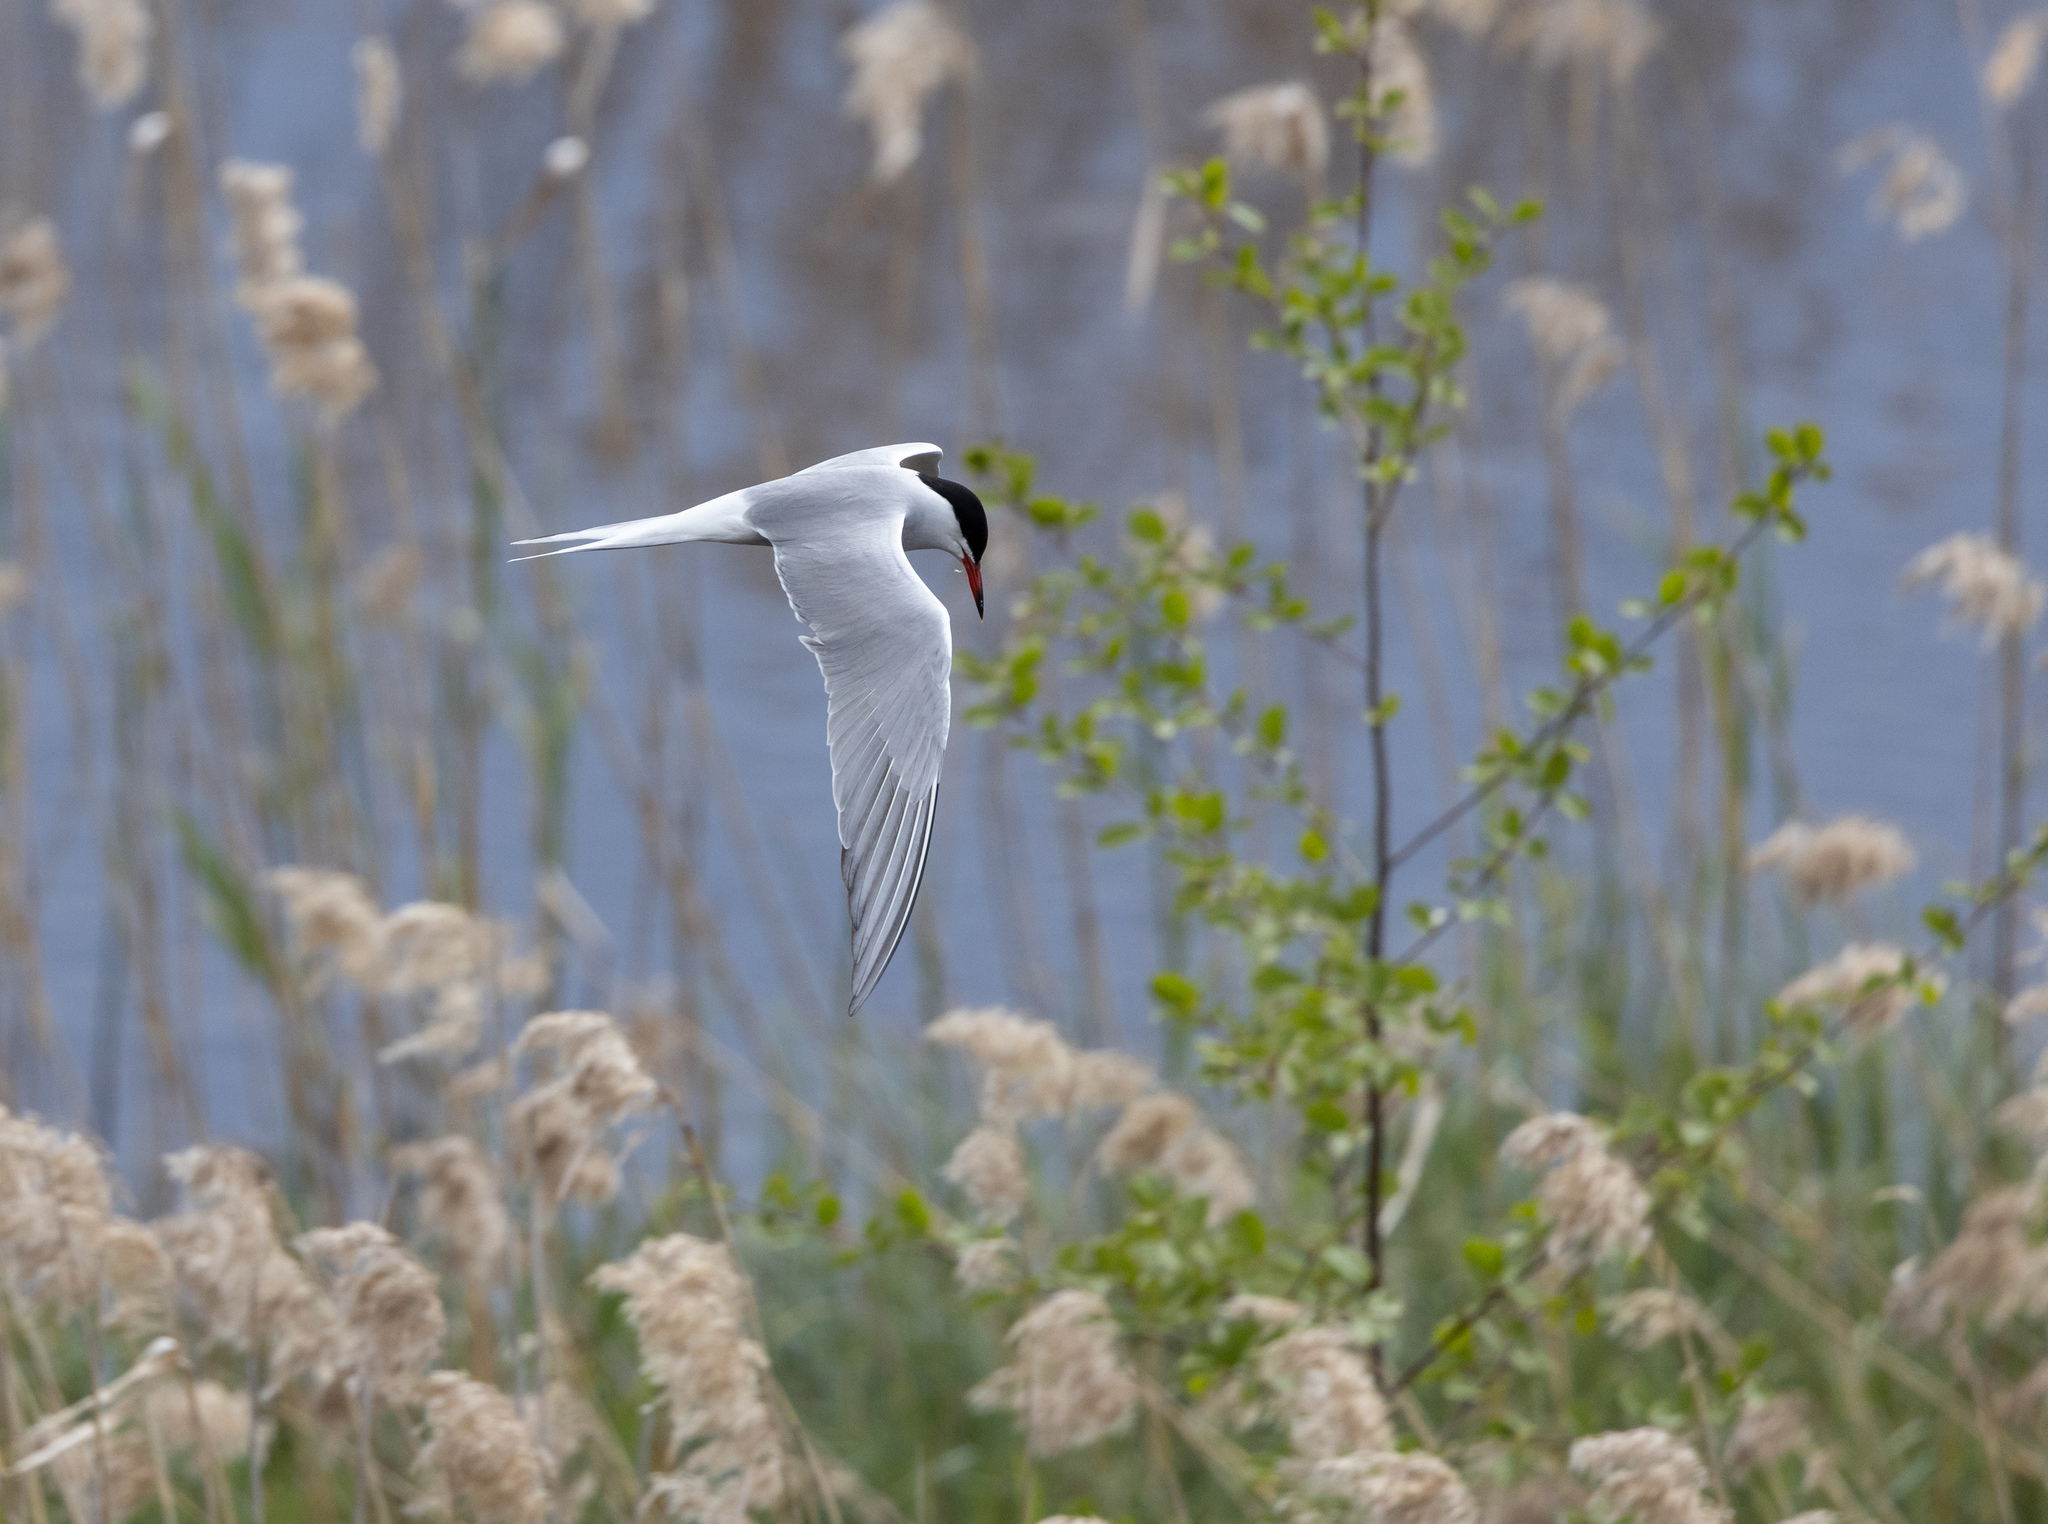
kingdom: Animalia
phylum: Chordata
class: Aves
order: Charadriiformes
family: Laridae
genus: Sterna
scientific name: Sterna hirundo
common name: Common tern
